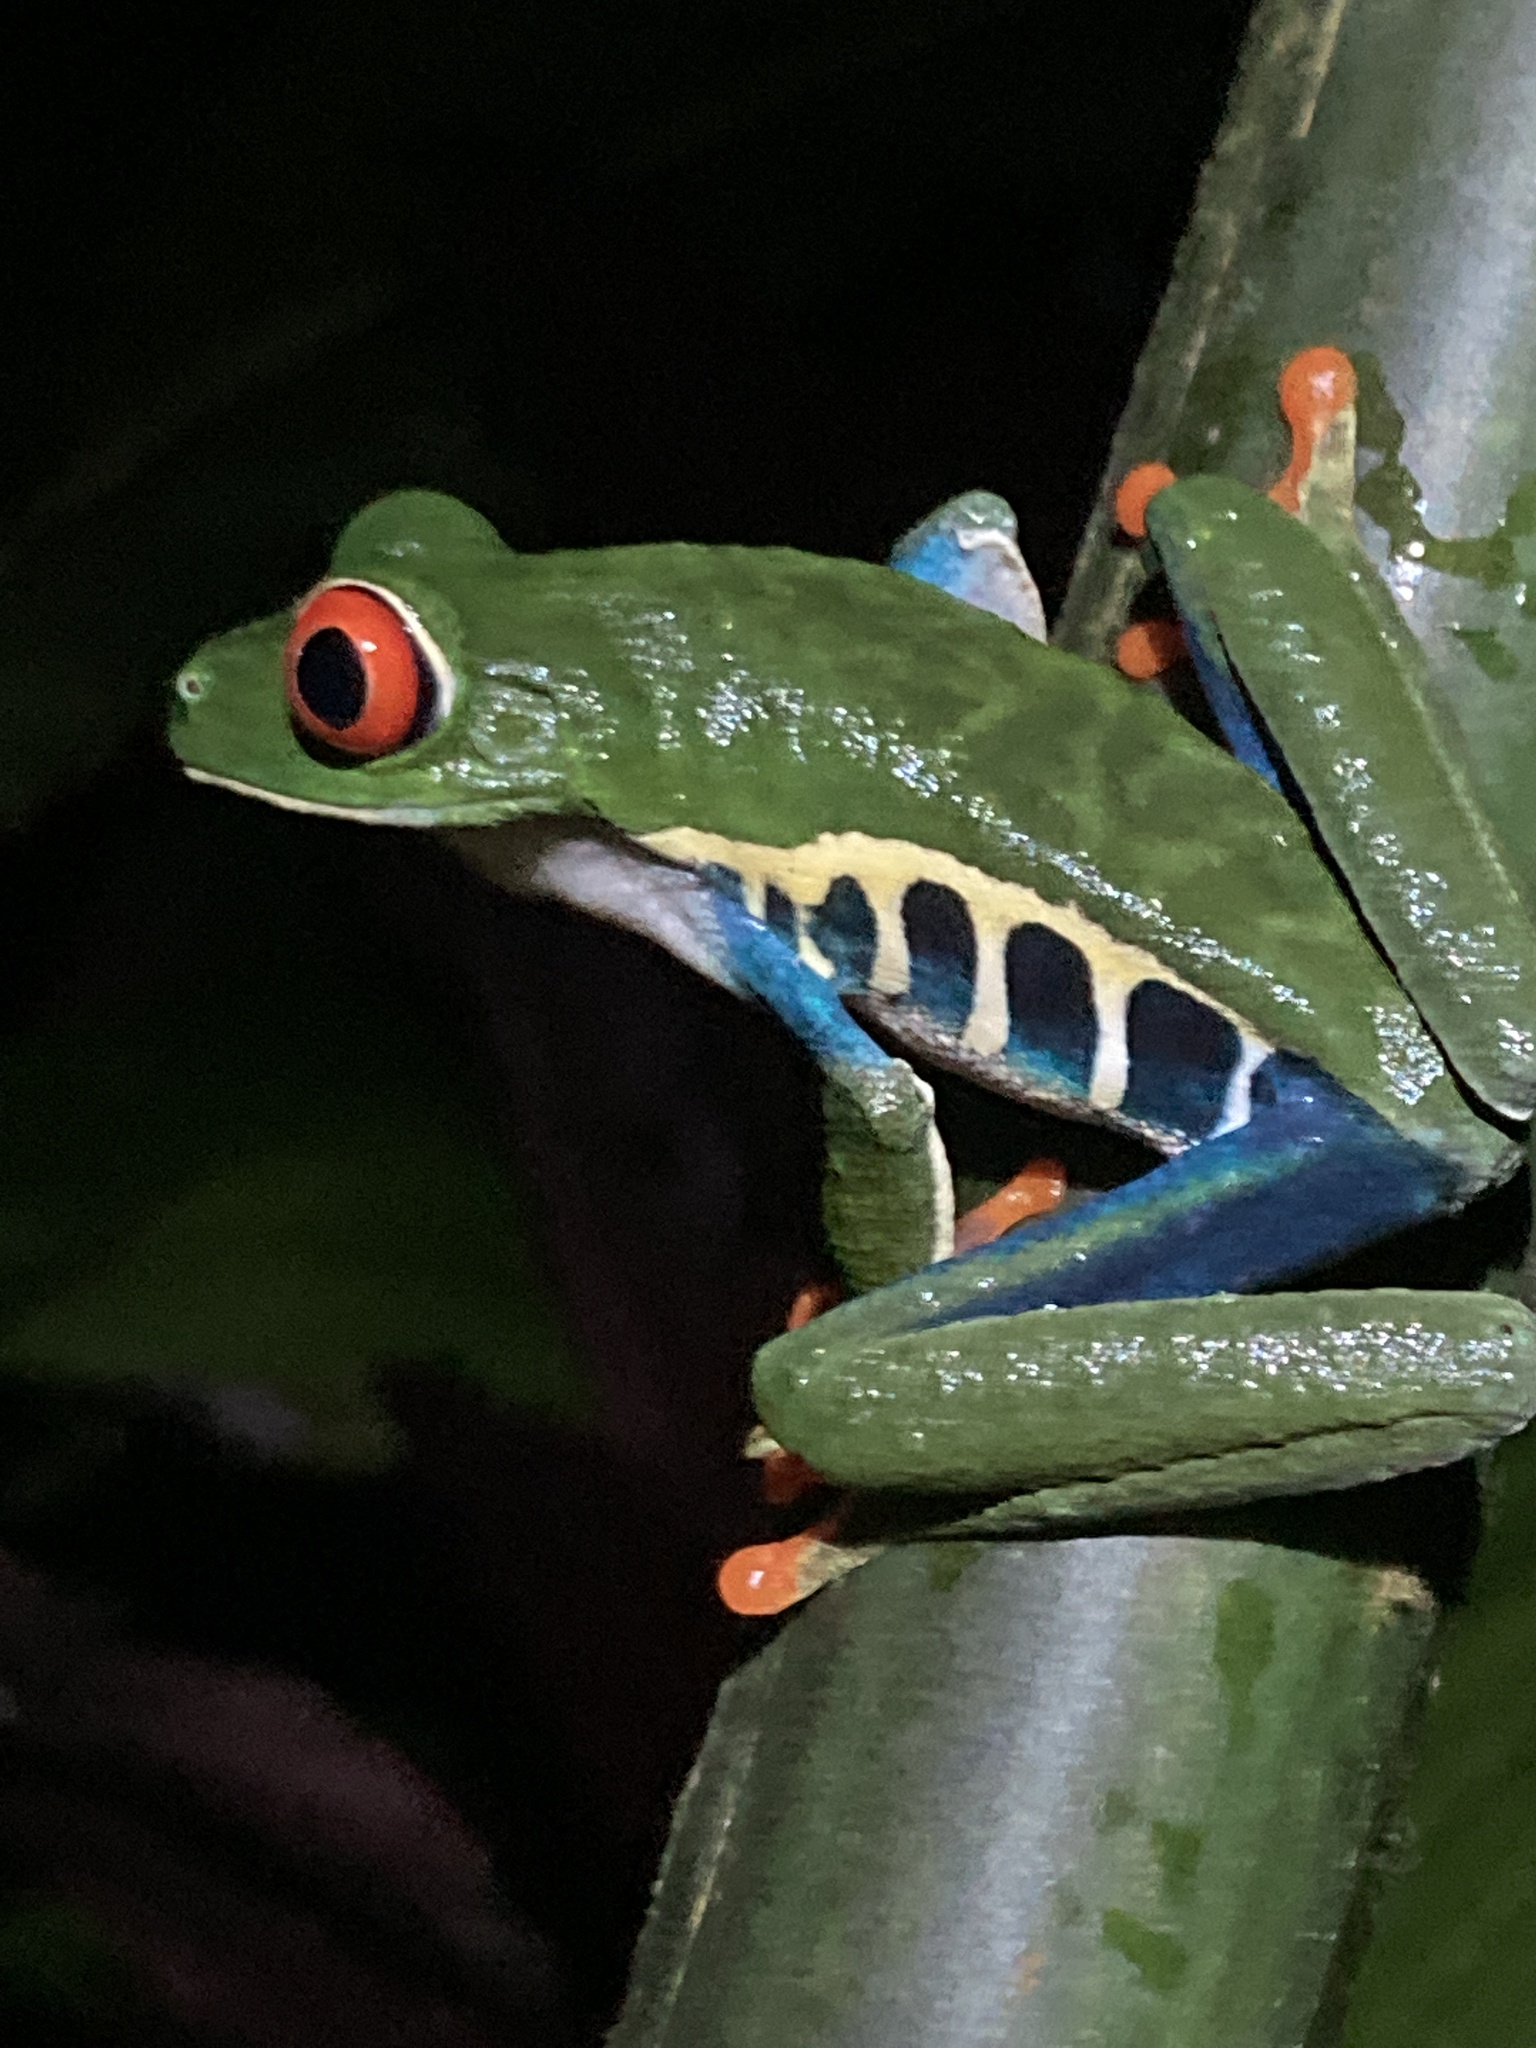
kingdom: Animalia
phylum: Chordata
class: Amphibia
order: Anura
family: Phyllomedusidae
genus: Agalychnis
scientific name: Agalychnis callidryas
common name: Red-eyed treefrog
